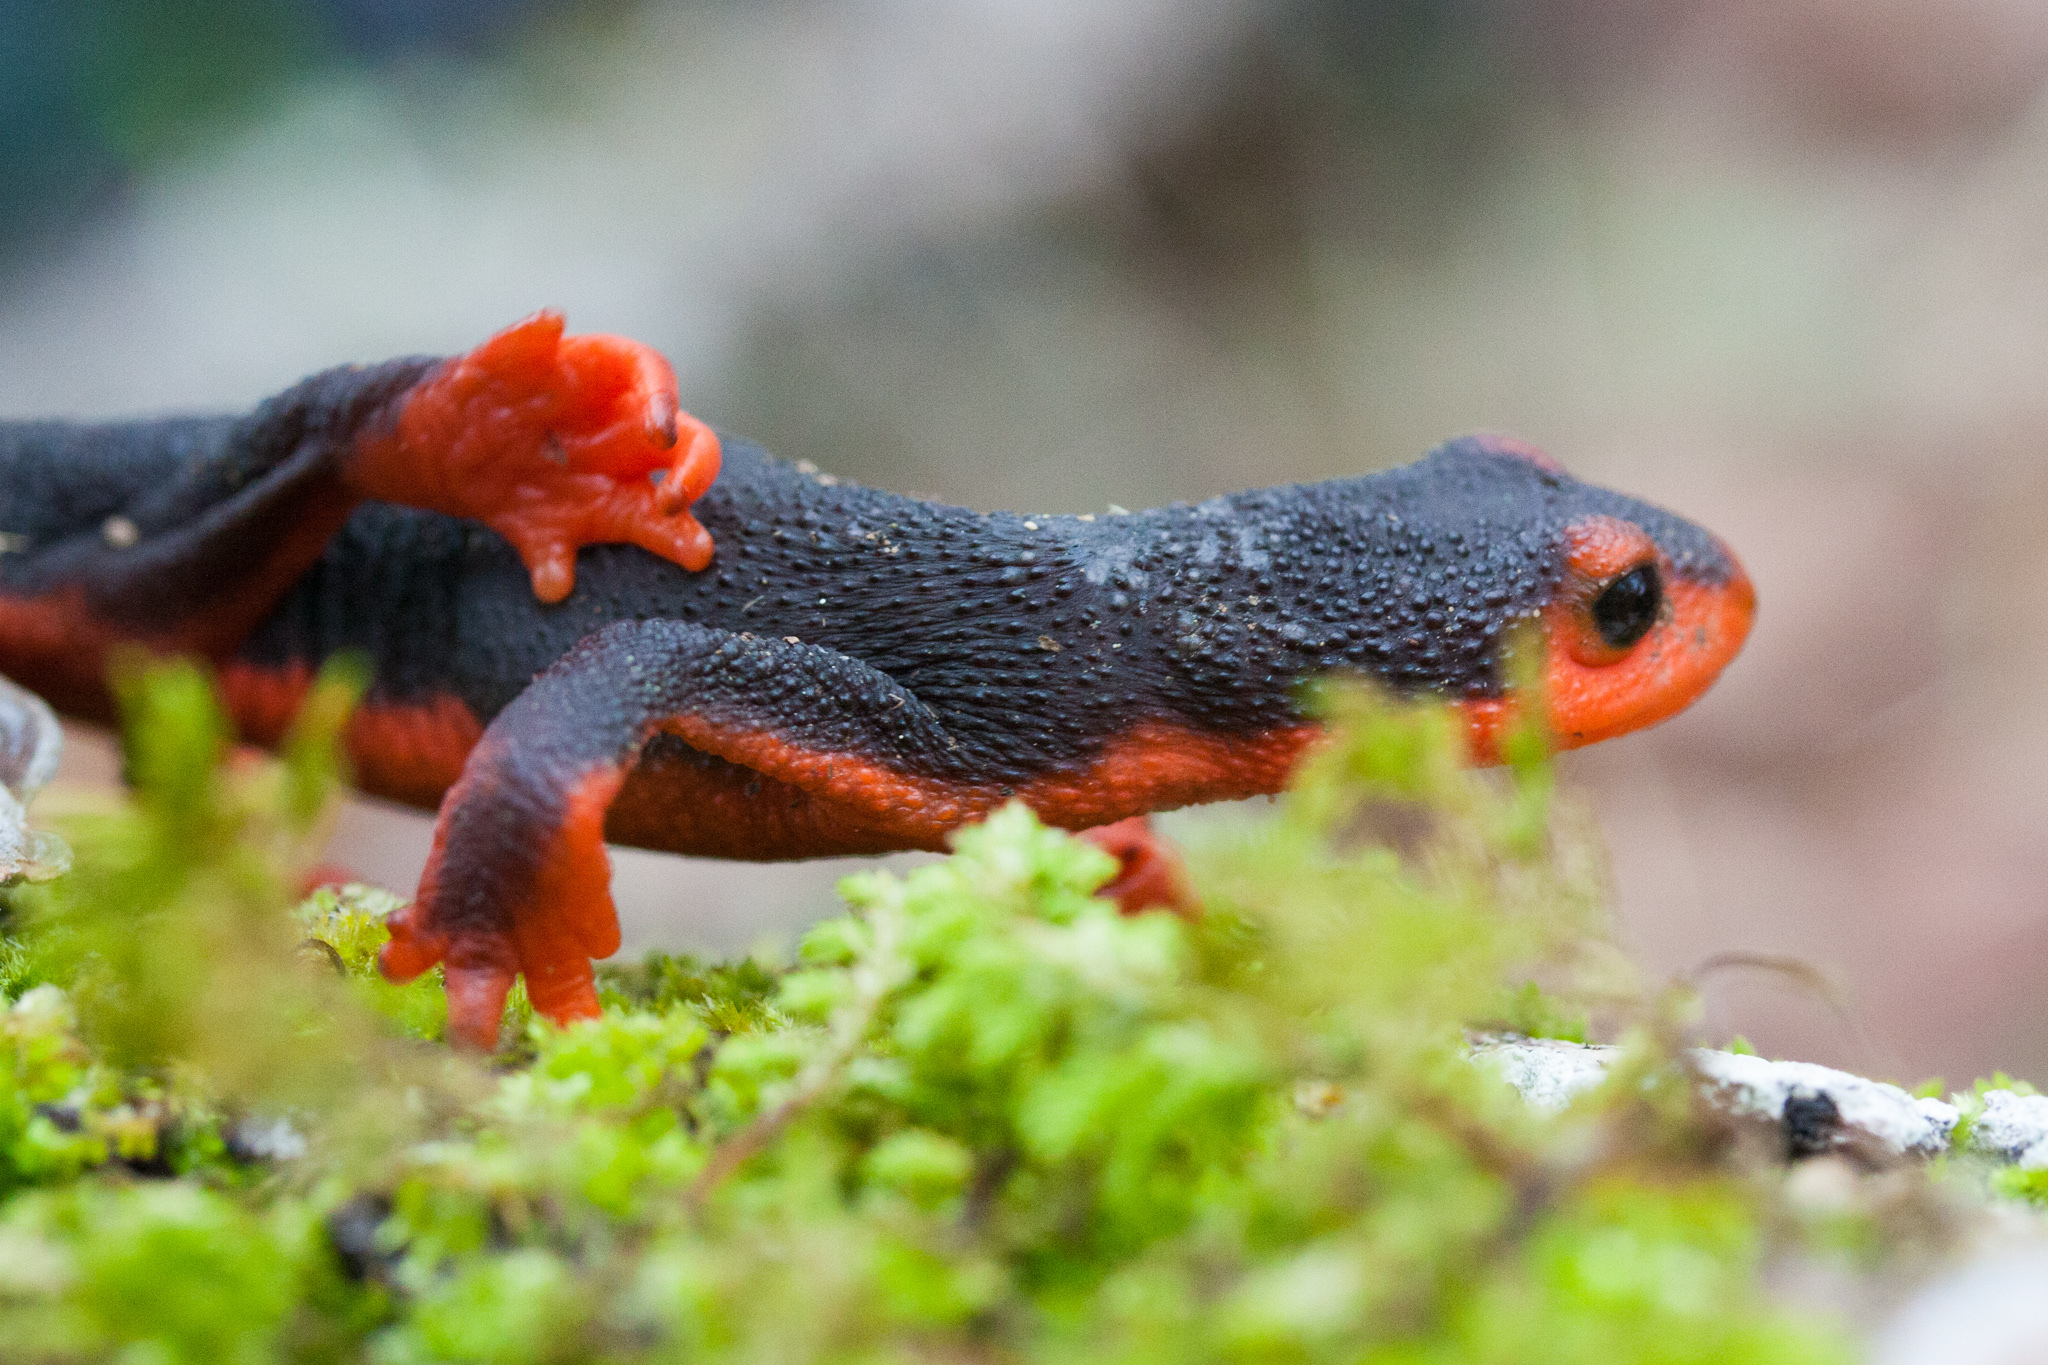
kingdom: Animalia
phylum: Chordata
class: Amphibia
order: Caudata
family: Salamandridae
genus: Taricha
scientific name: Taricha rivularis
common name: Red-bellied newt
